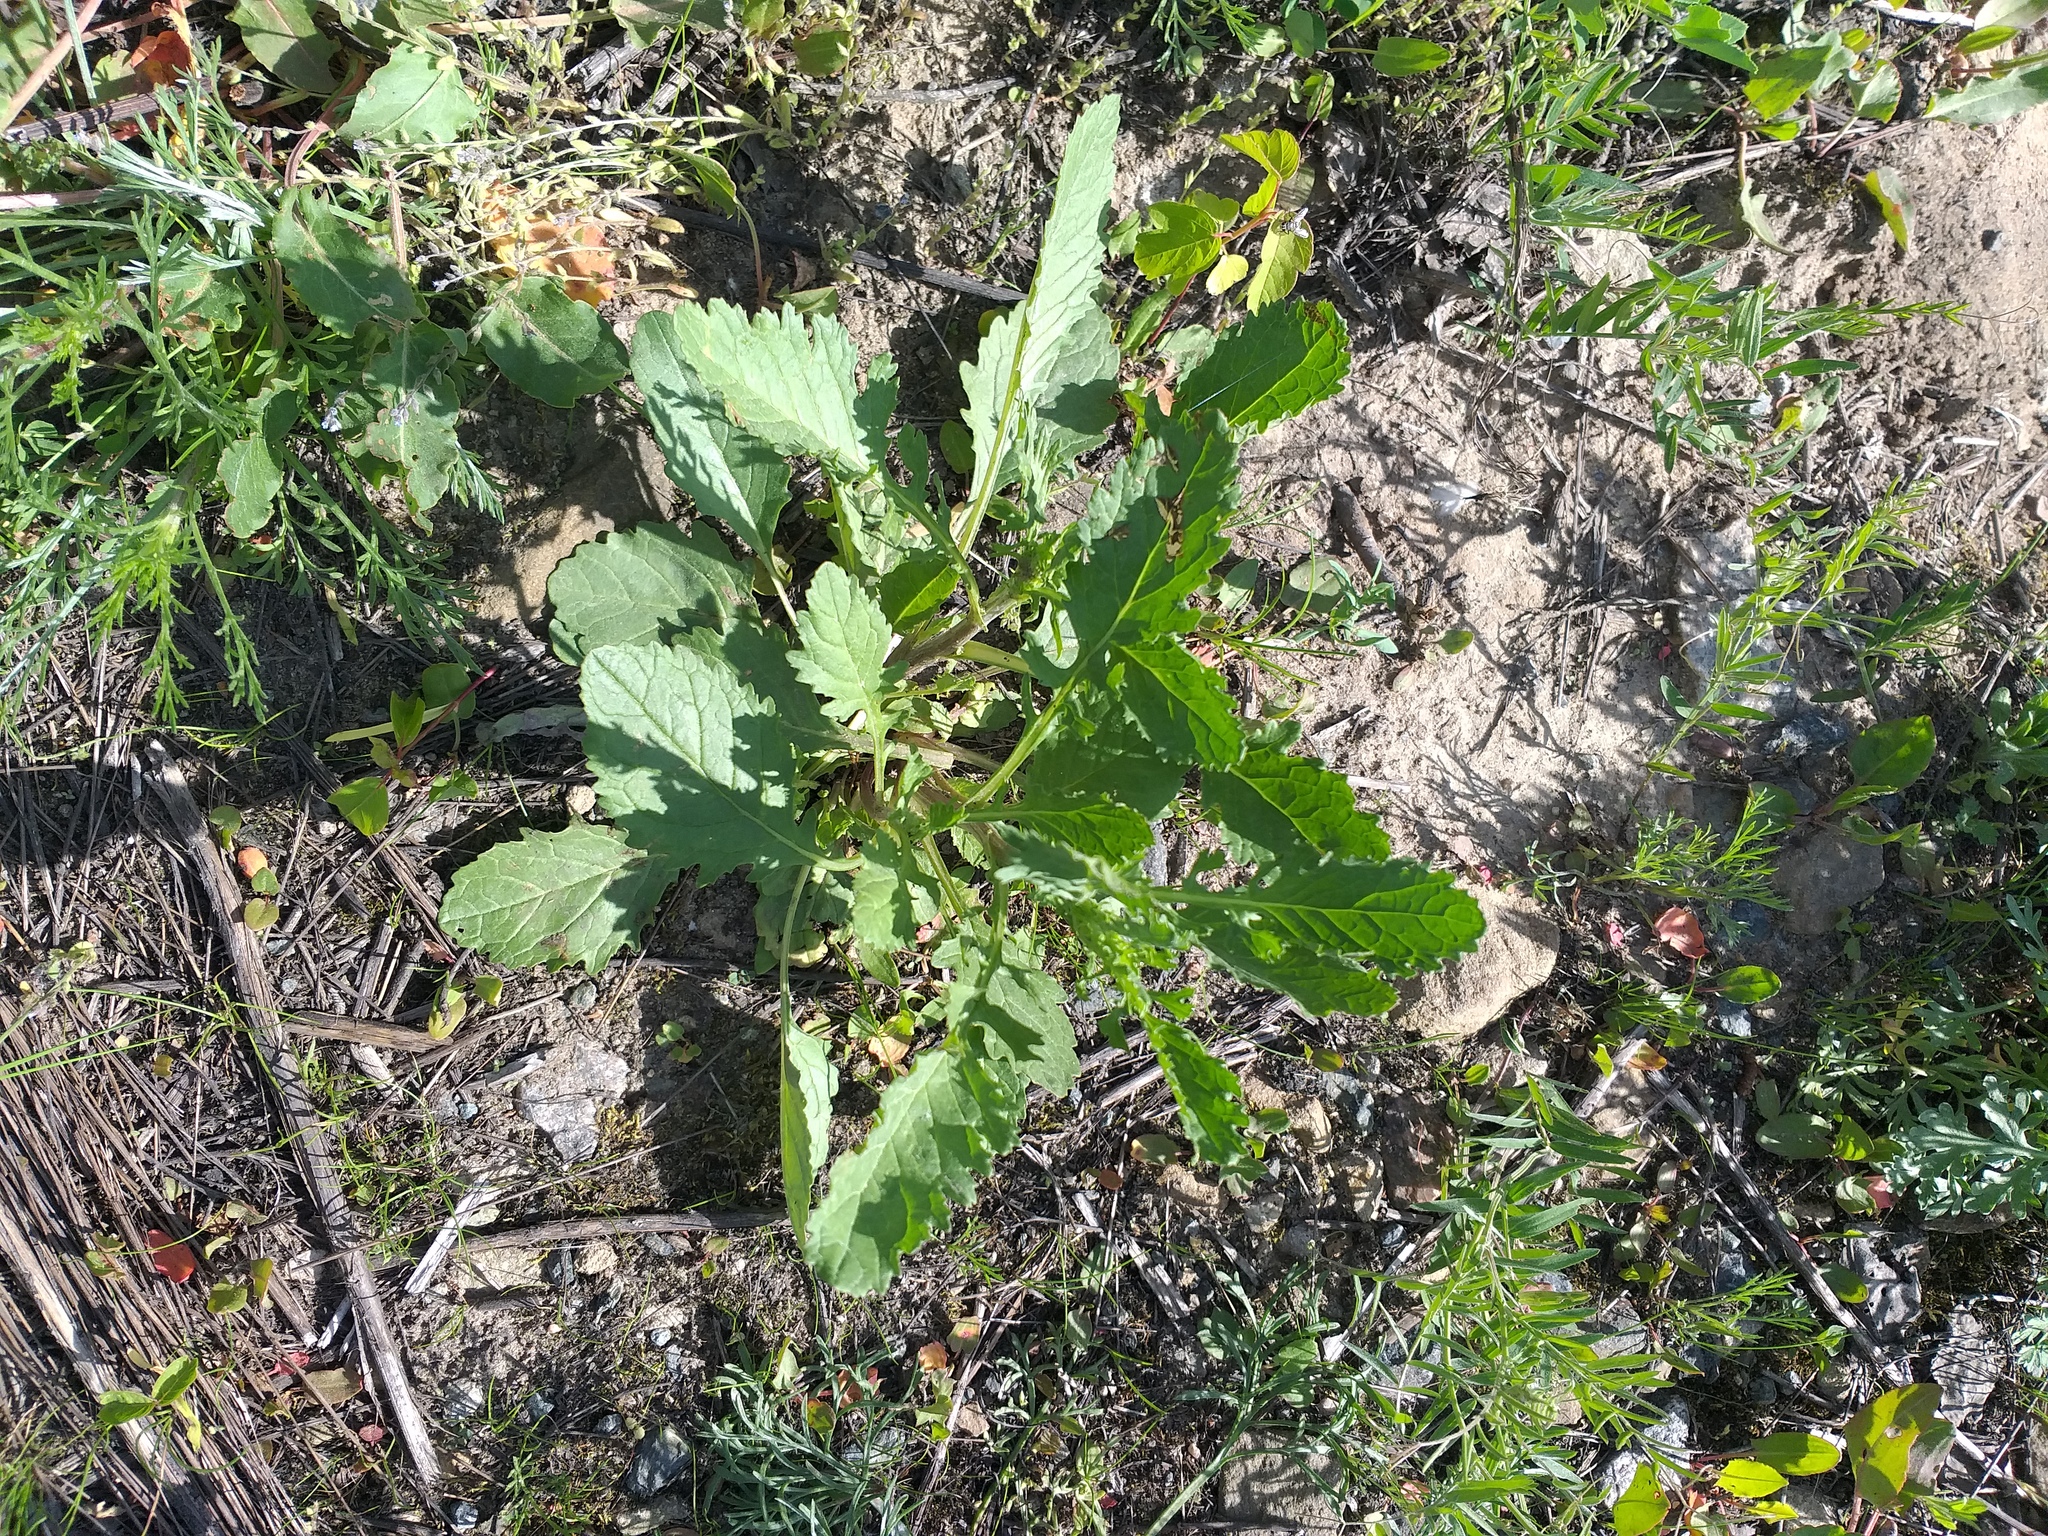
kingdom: Plantae
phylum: Tracheophyta
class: Magnoliopsida
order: Asterales
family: Asteraceae
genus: Jacobaea
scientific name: Jacobaea vulgaris
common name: Stinking willie
